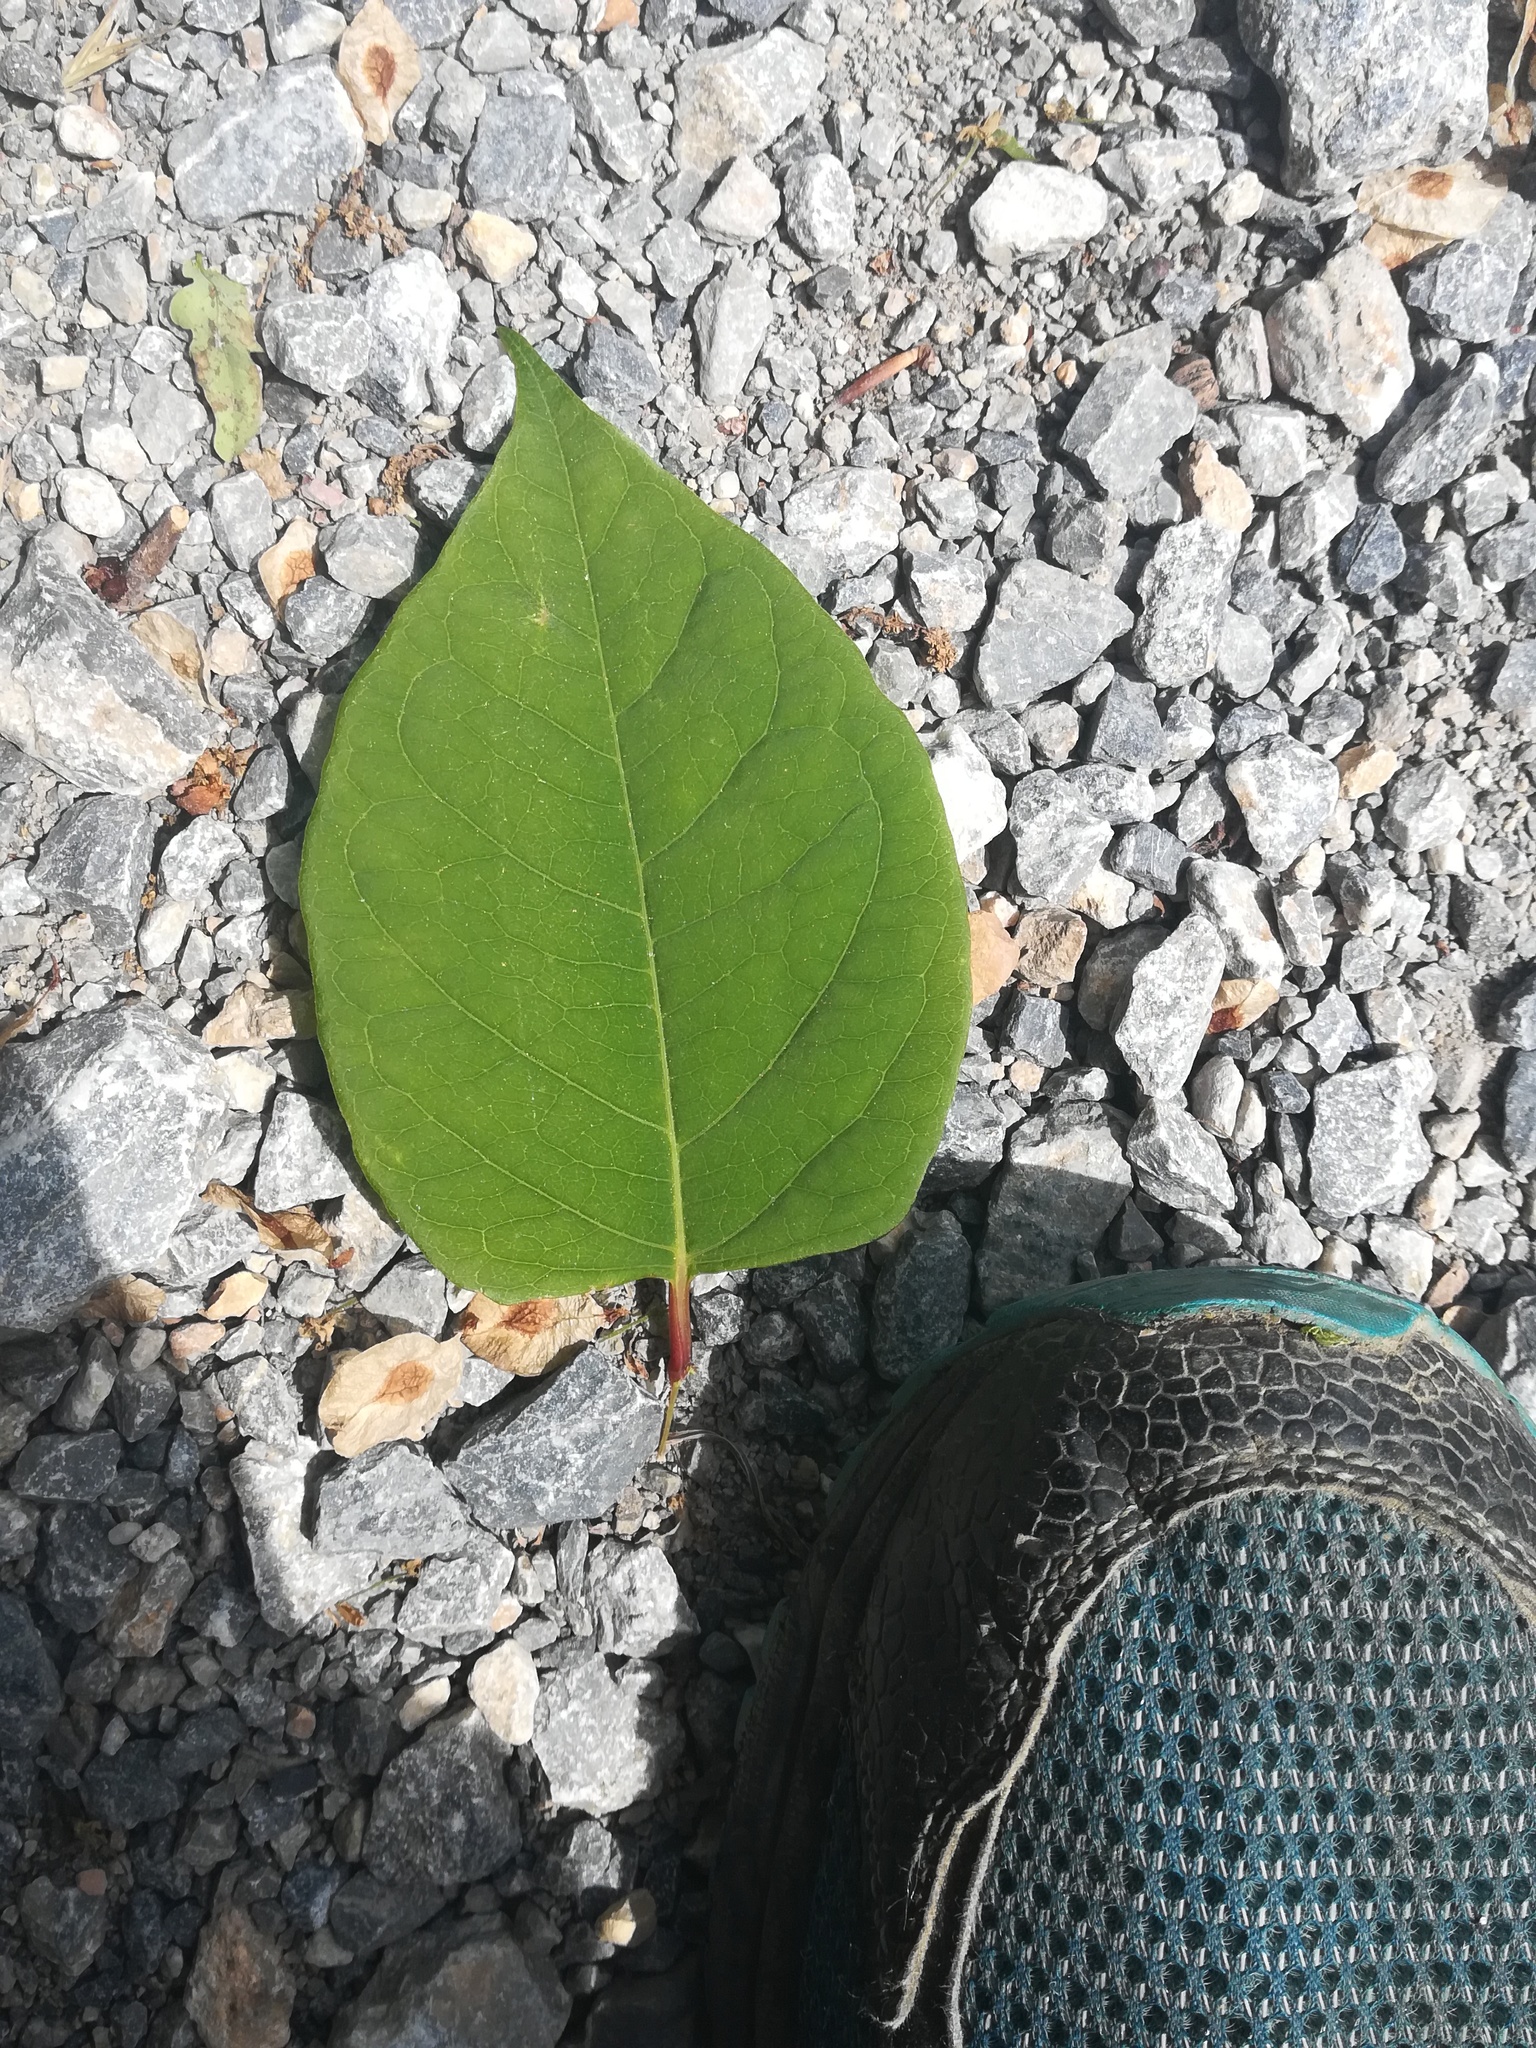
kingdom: Plantae
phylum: Tracheophyta
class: Magnoliopsida
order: Caryophyllales
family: Polygonaceae
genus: Reynoutria
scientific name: Reynoutria japonica
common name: Japanese knotweed
